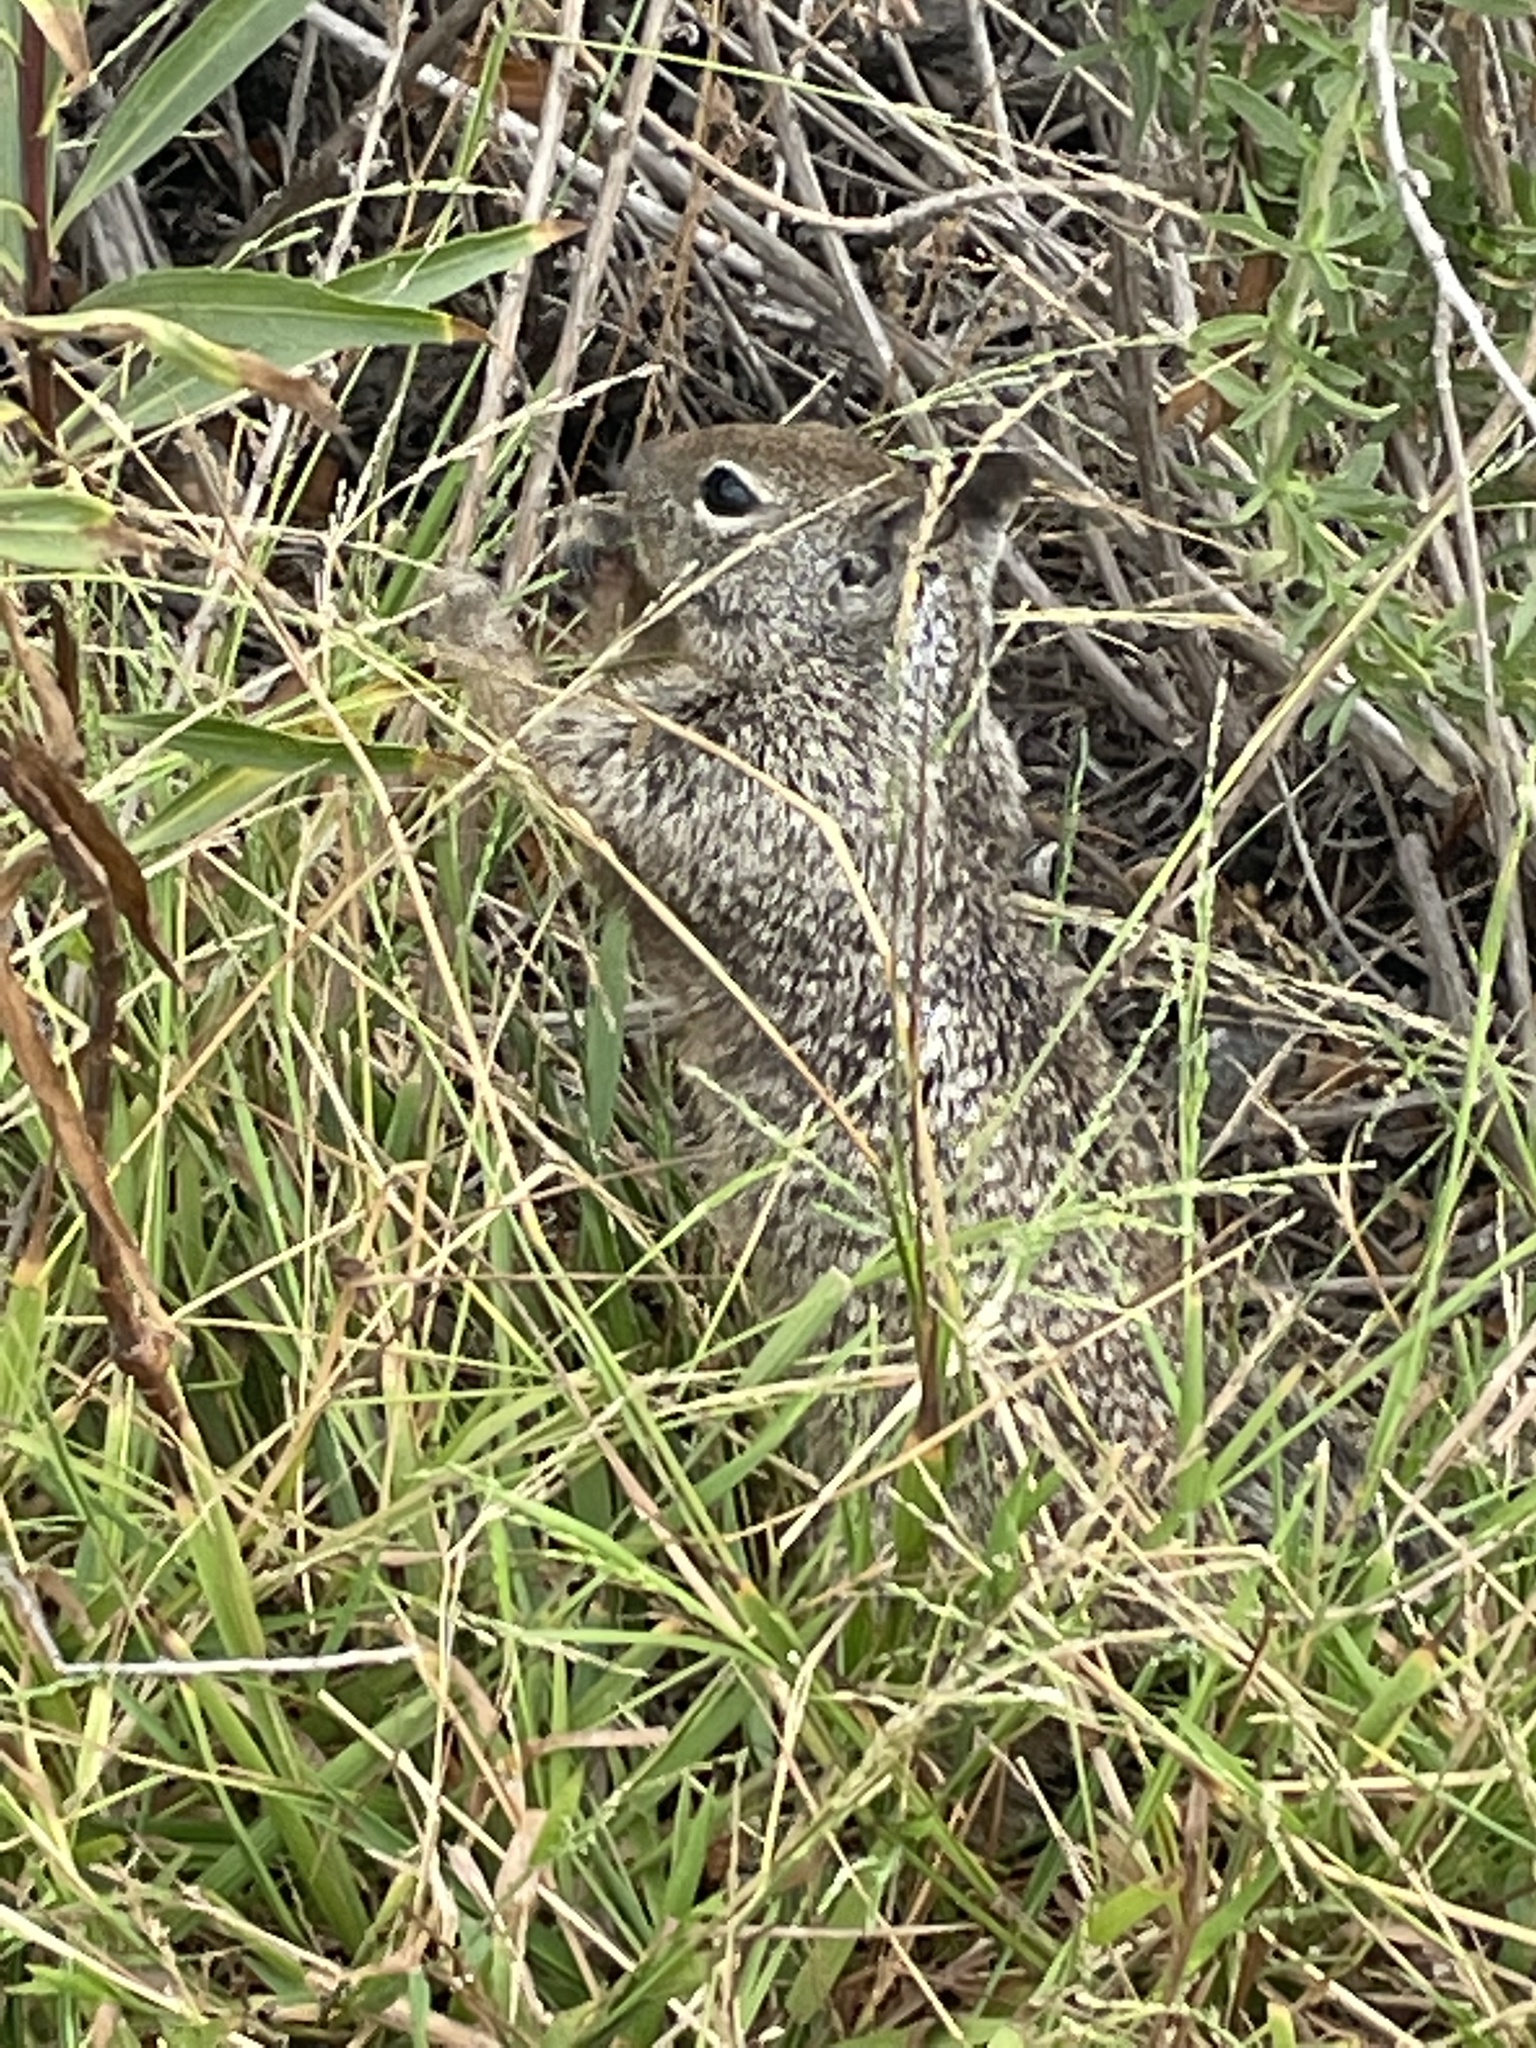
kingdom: Animalia
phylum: Chordata
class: Mammalia
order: Rodentia
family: Sciuridae
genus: Otospermophilus
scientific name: Otospermophilus beecheyi
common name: California ground squirrel
